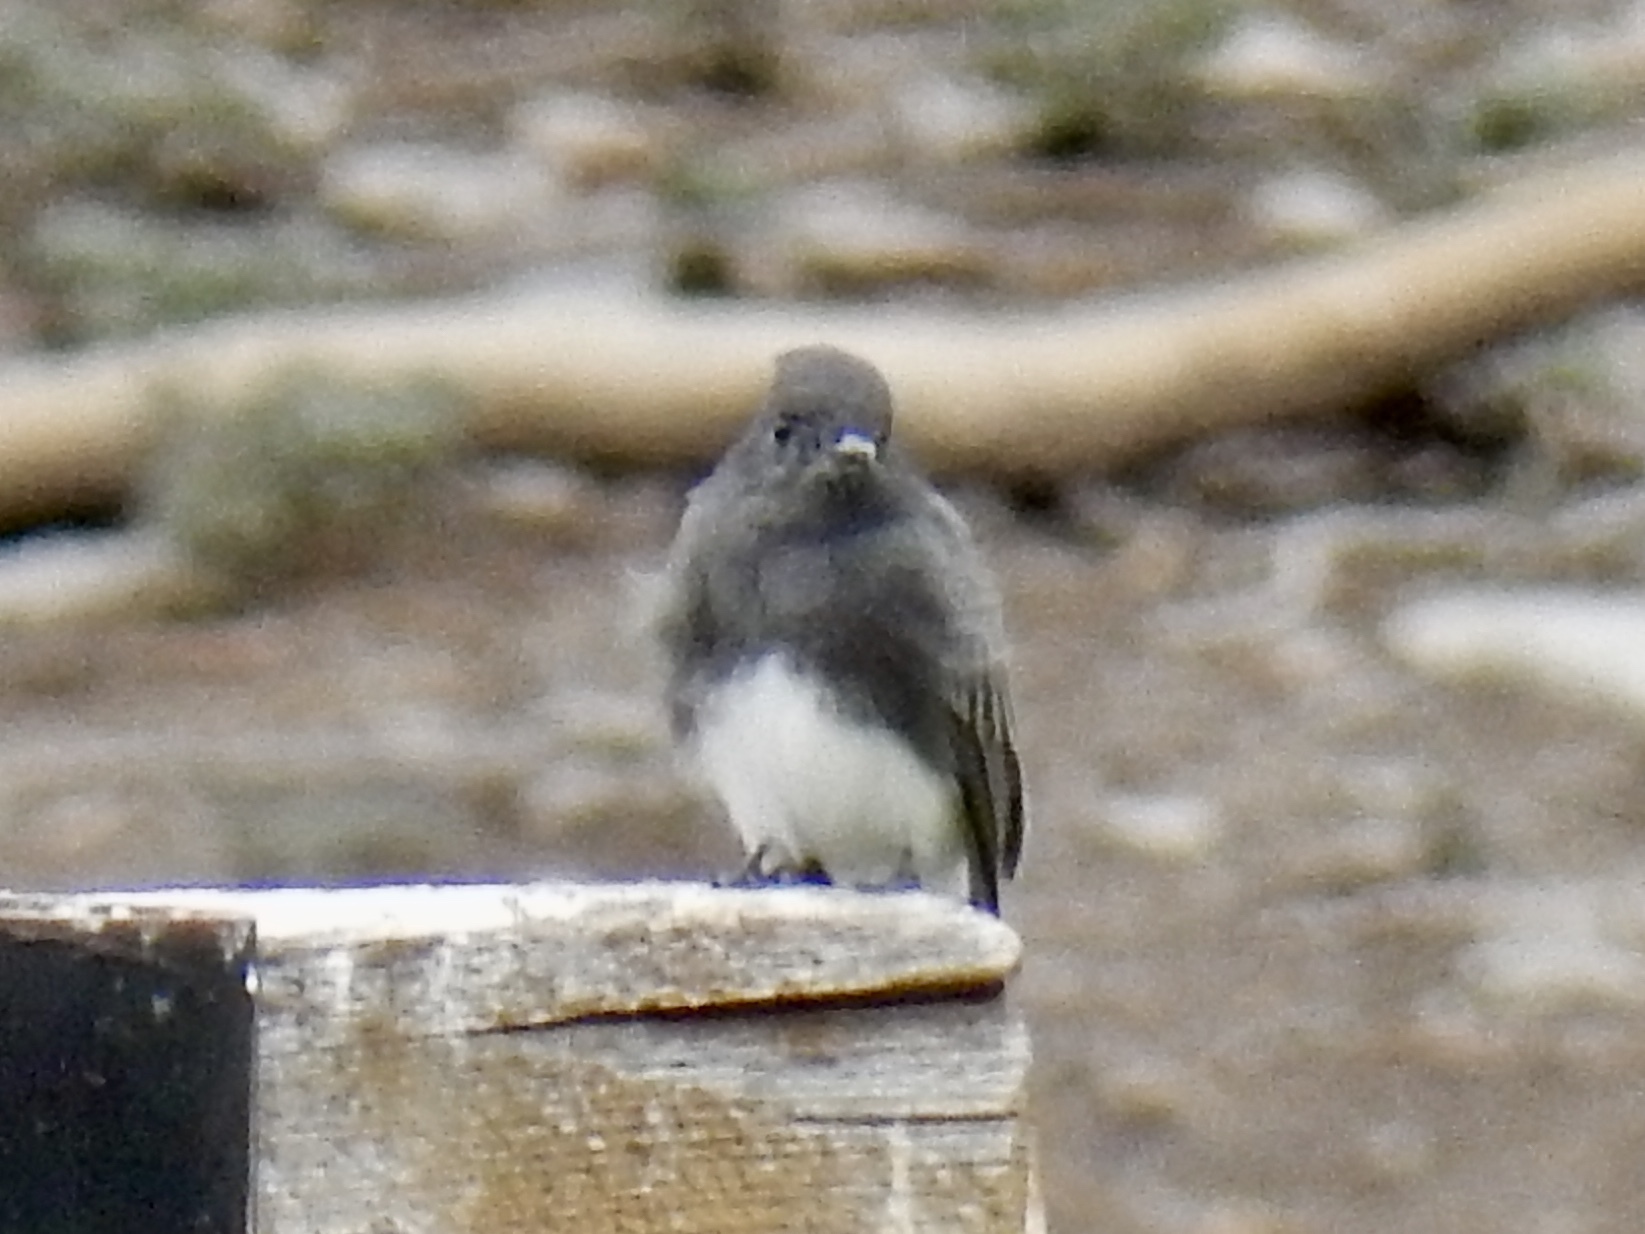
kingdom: Animalia
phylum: Chordata
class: Aves
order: Passeriformes
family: Tyrannidae
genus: Sayornis
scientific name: Sayornis nigricans
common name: Black phoebe
